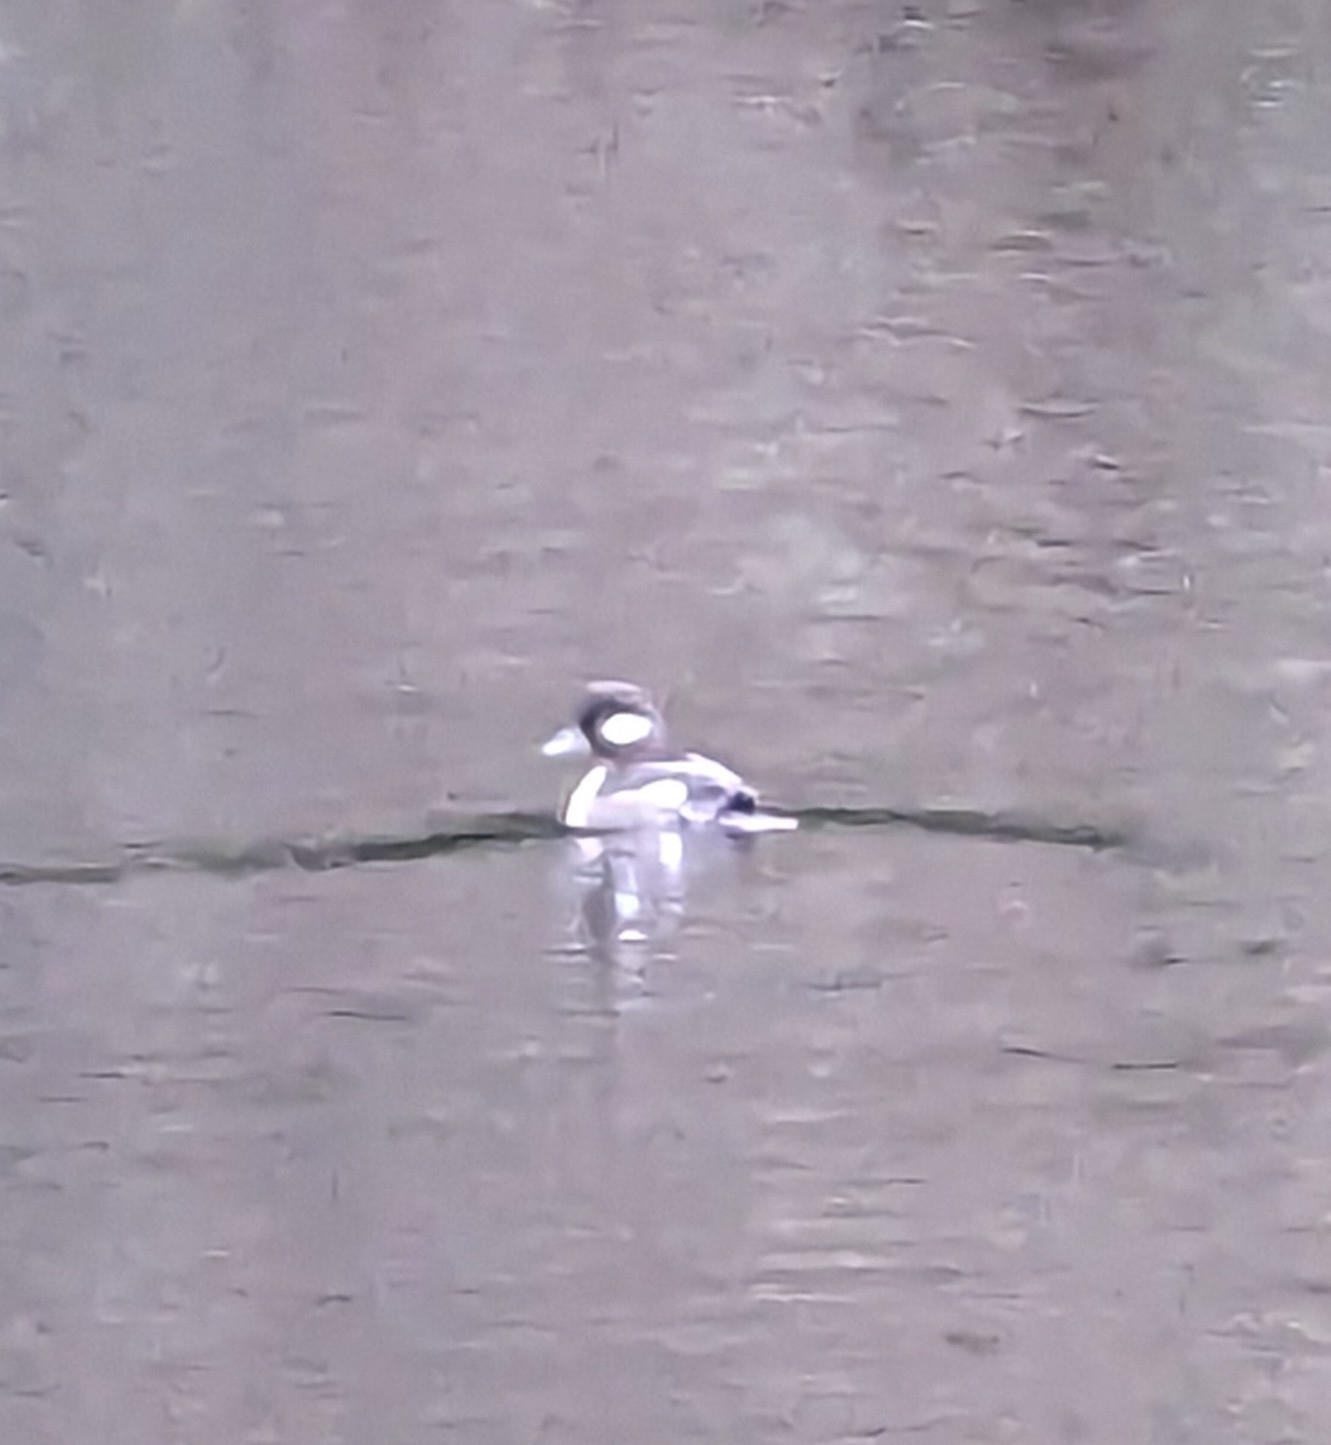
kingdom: Animalia
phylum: Chordata
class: Aves
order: Anseriformes
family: Anatidae
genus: Bucephala
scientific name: Bucephala albeola
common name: Bufflehead
